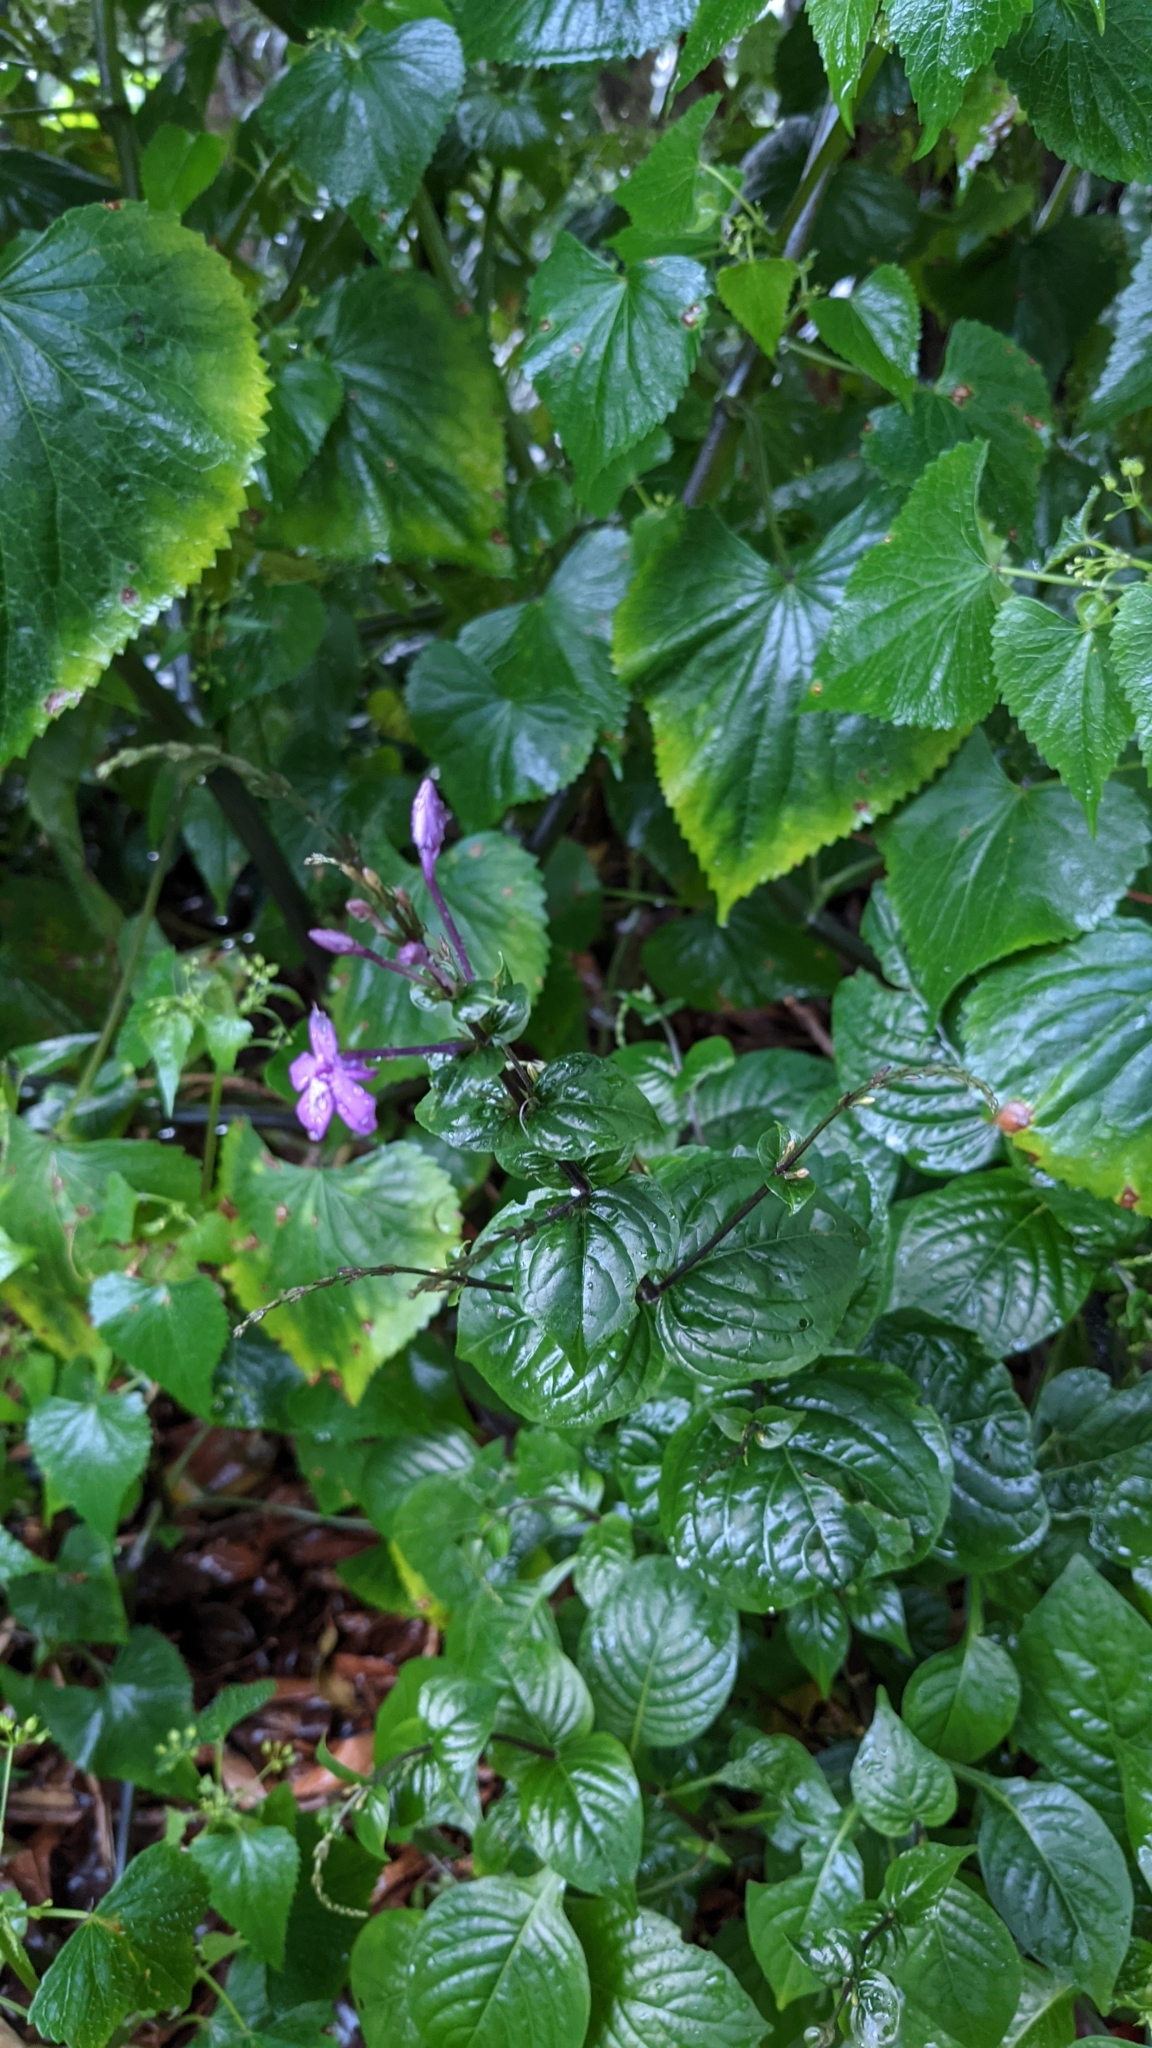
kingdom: Plantae
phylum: Tracheophyta
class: Magnoliopsida
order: Lamiales
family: Acanthaceae
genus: Pseuderanthemum
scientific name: Pseuderanthemum cuspidatum
